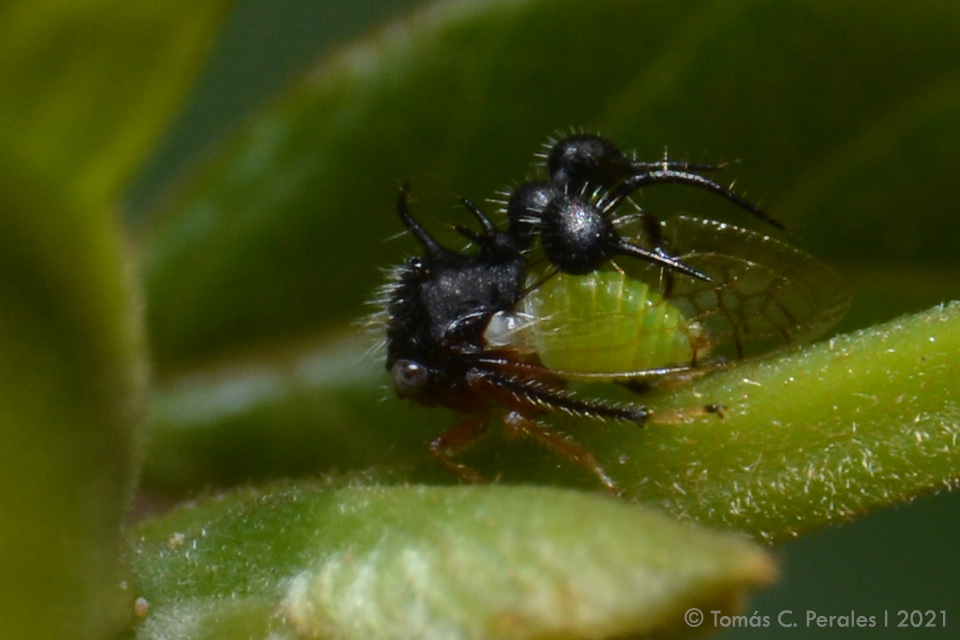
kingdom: Animalia
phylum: Arthropoda
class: Insecta
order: Hemiptera
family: Membracidae
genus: Cyphonia
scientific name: Cyphonia clavata
